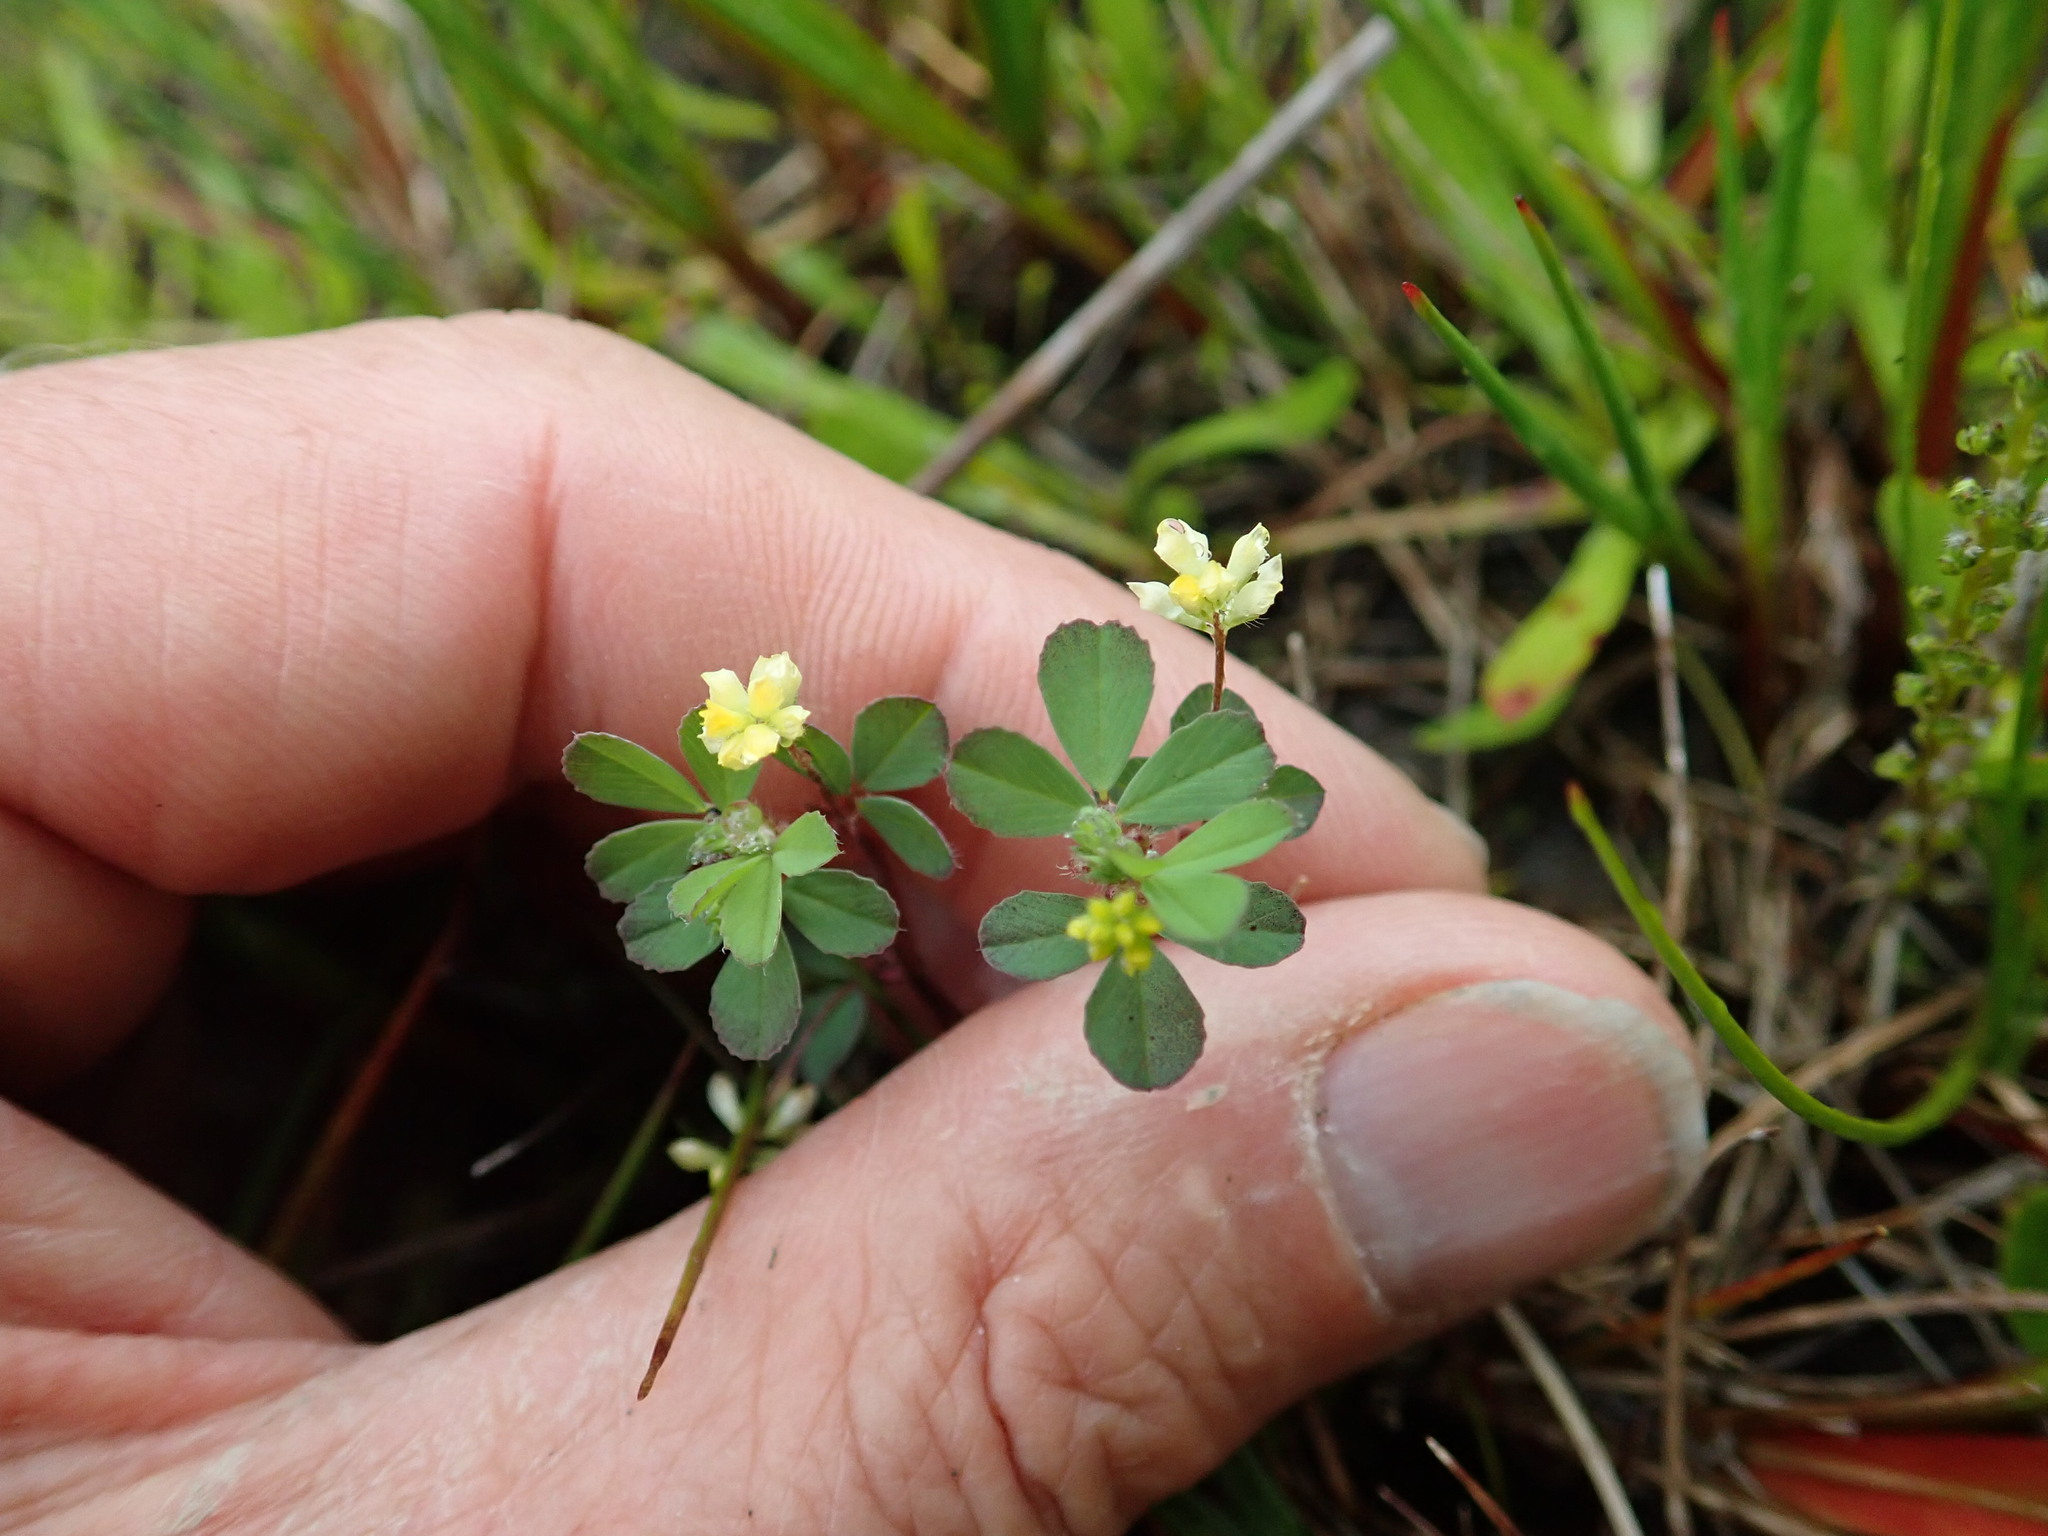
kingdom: Plantae
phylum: Tracheophyta
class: Magnoliopsida
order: Fabales
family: Fabaceae
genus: Trifolium
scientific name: Trifolium dubium
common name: Suckling clover
